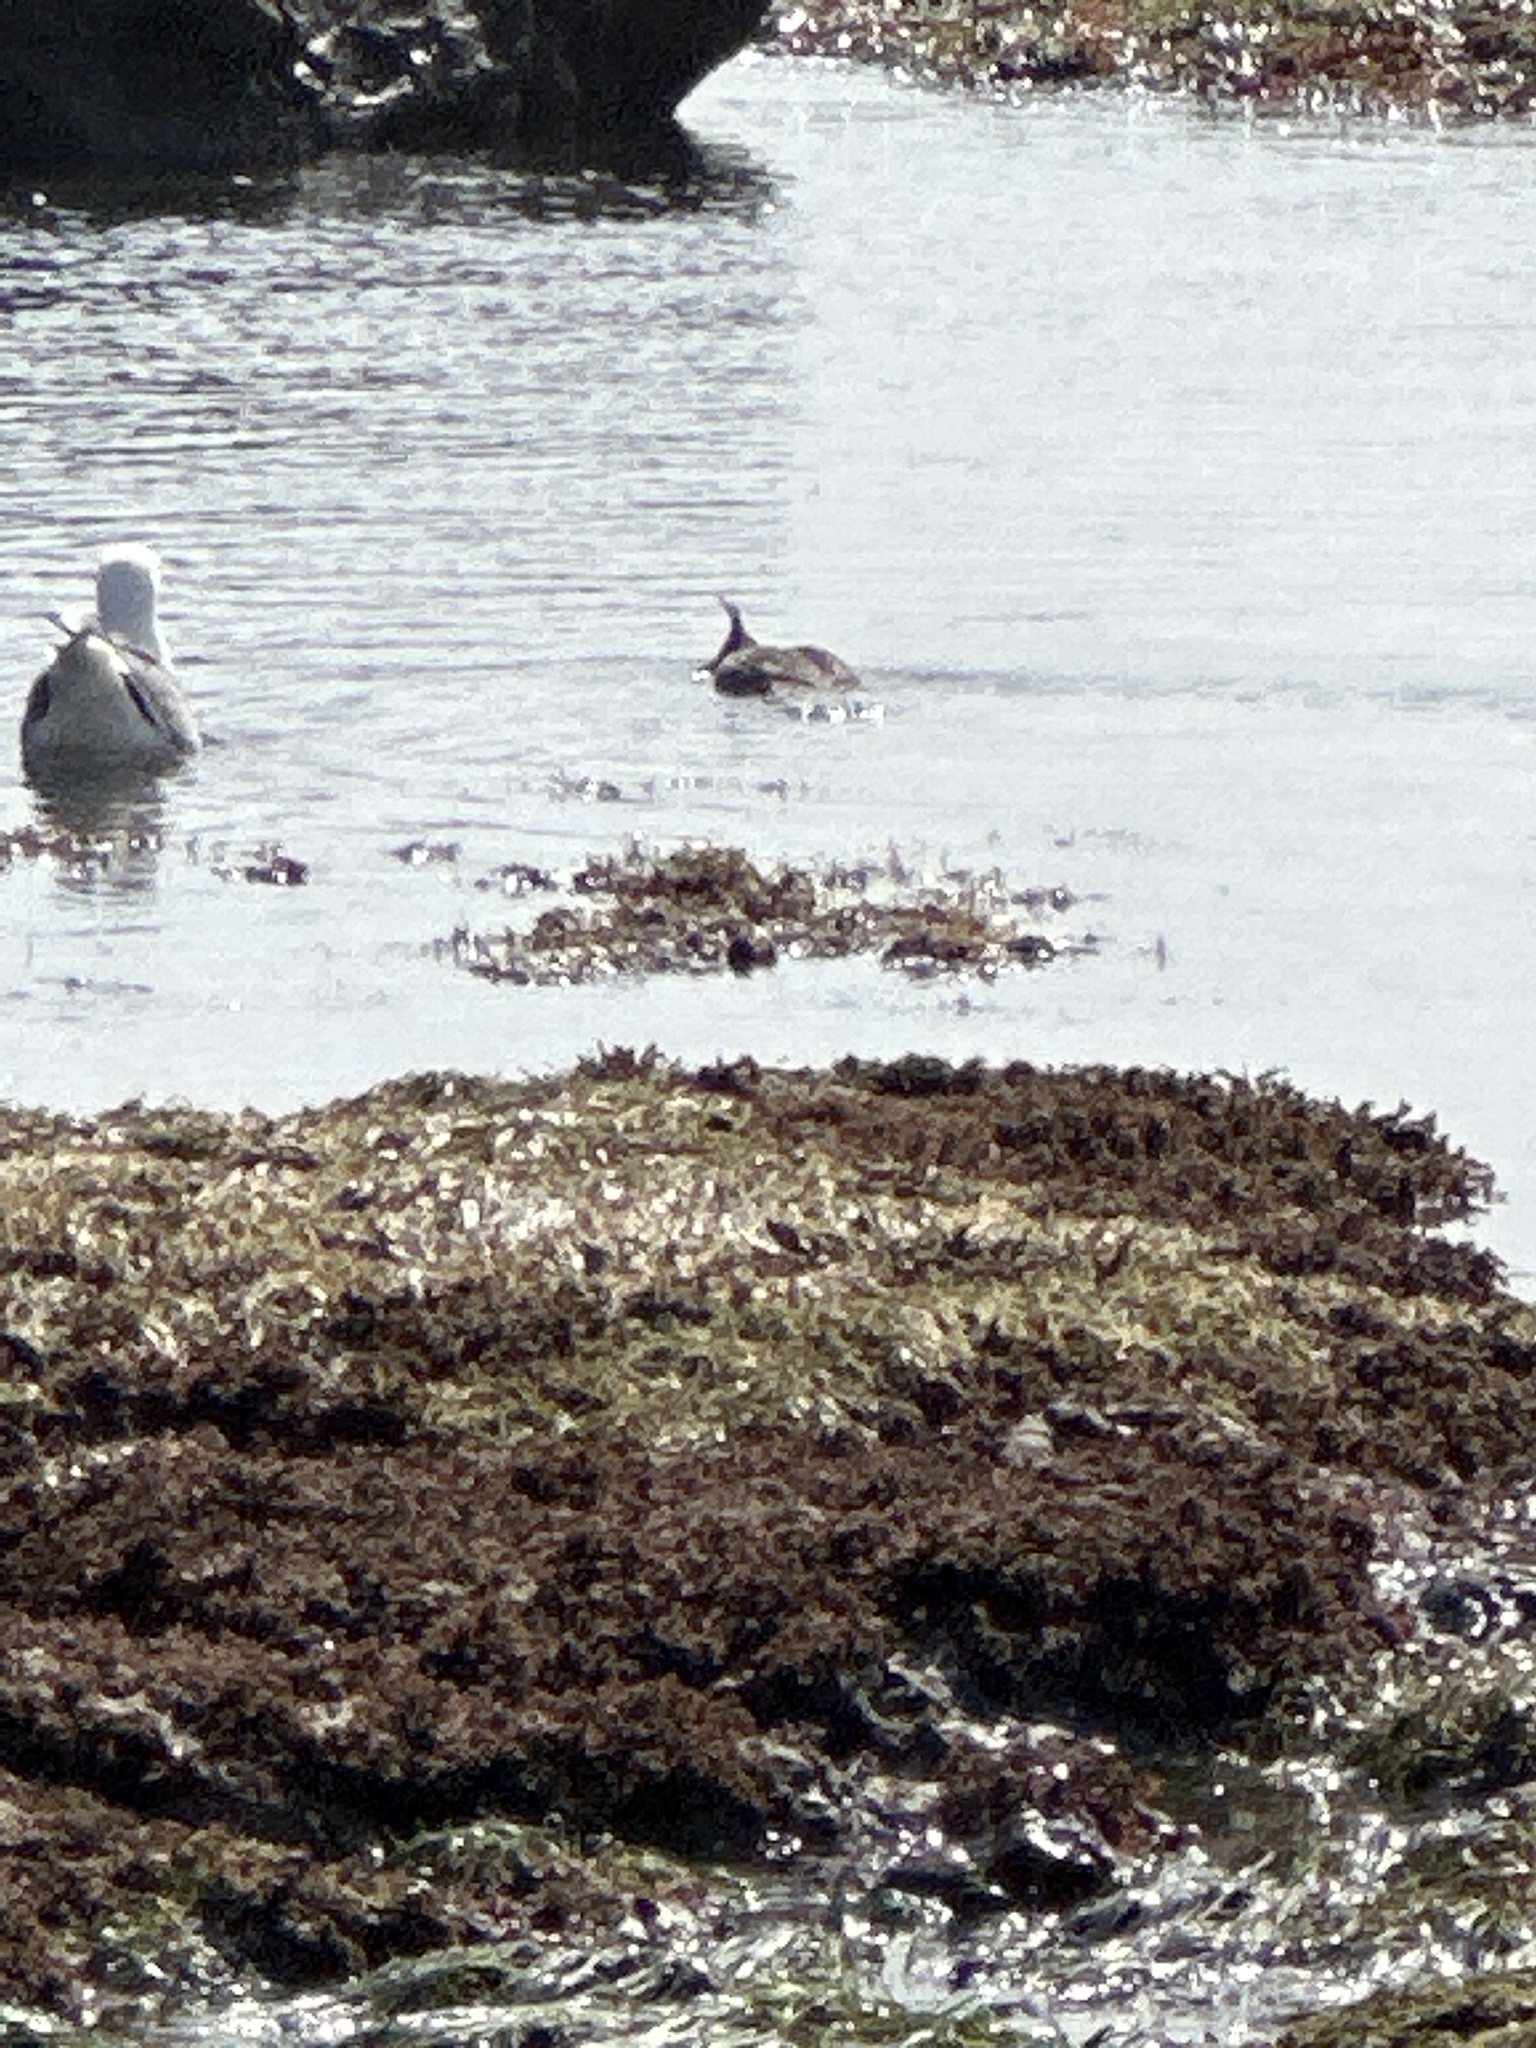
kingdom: Animalia
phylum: Chordata
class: Aves
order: Anseriformes
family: Anatidae
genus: Mergus
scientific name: Mergus serrator
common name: Red-breasted merganser
